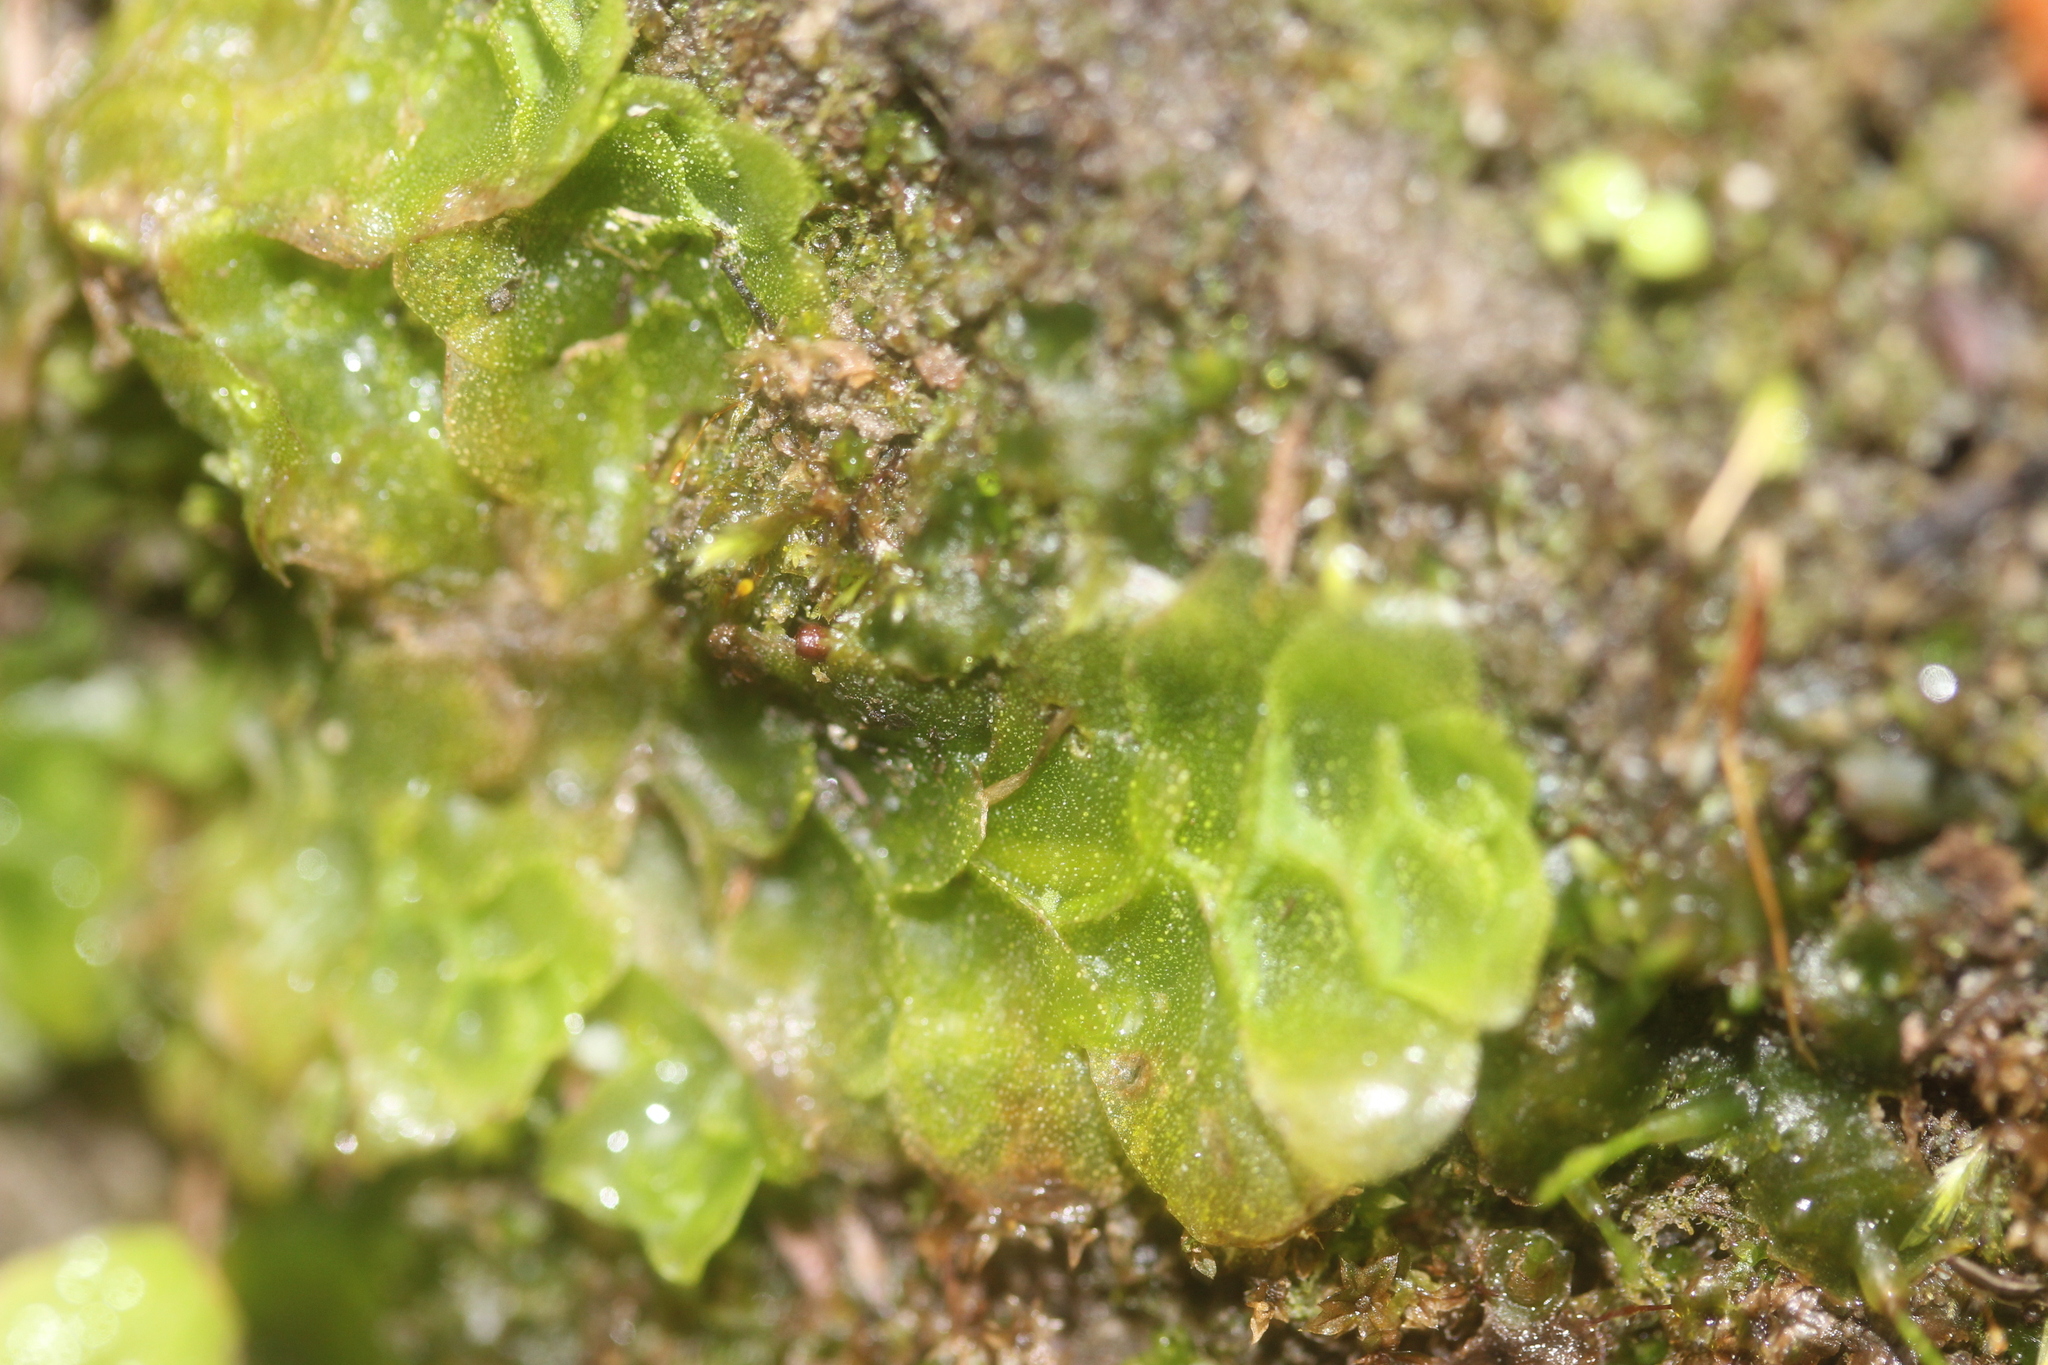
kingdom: Plantae
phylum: Marchantiophyta
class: Haplomitriopsida
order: Treubiales
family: Treubiaceae
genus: Treubia
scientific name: Treubia lacunosa
